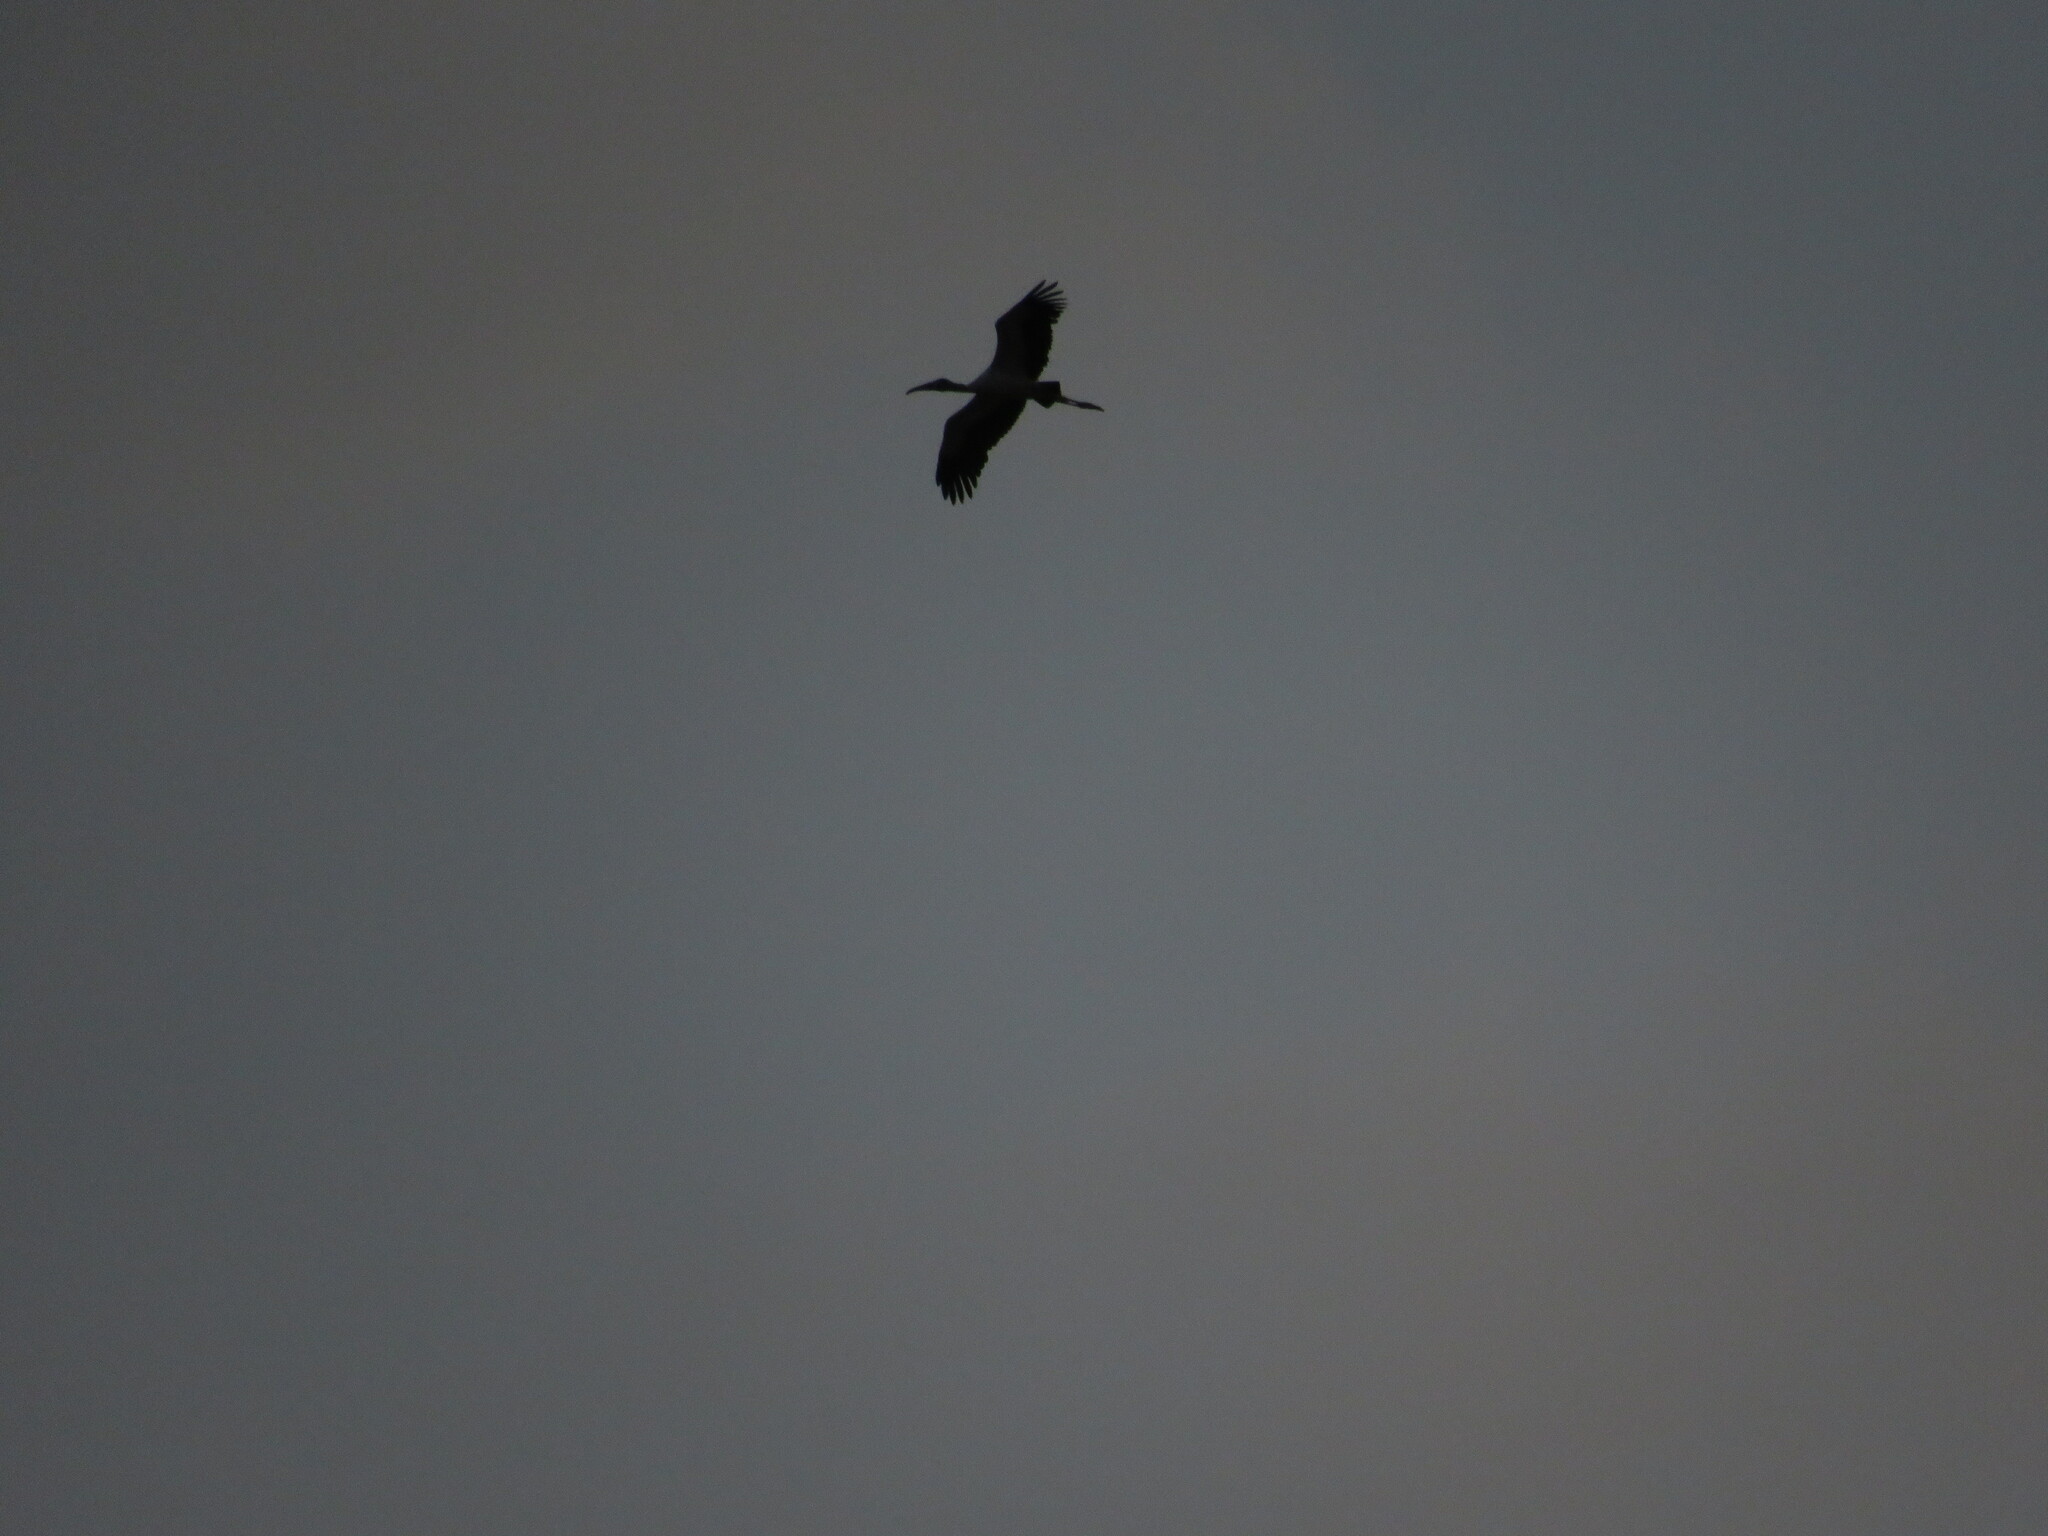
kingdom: Animalia
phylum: Chordata
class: Aves
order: Ciconiiformes
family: Ciconiidae
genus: Ciconia
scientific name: Ciconia maguari
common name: Maguari stork
